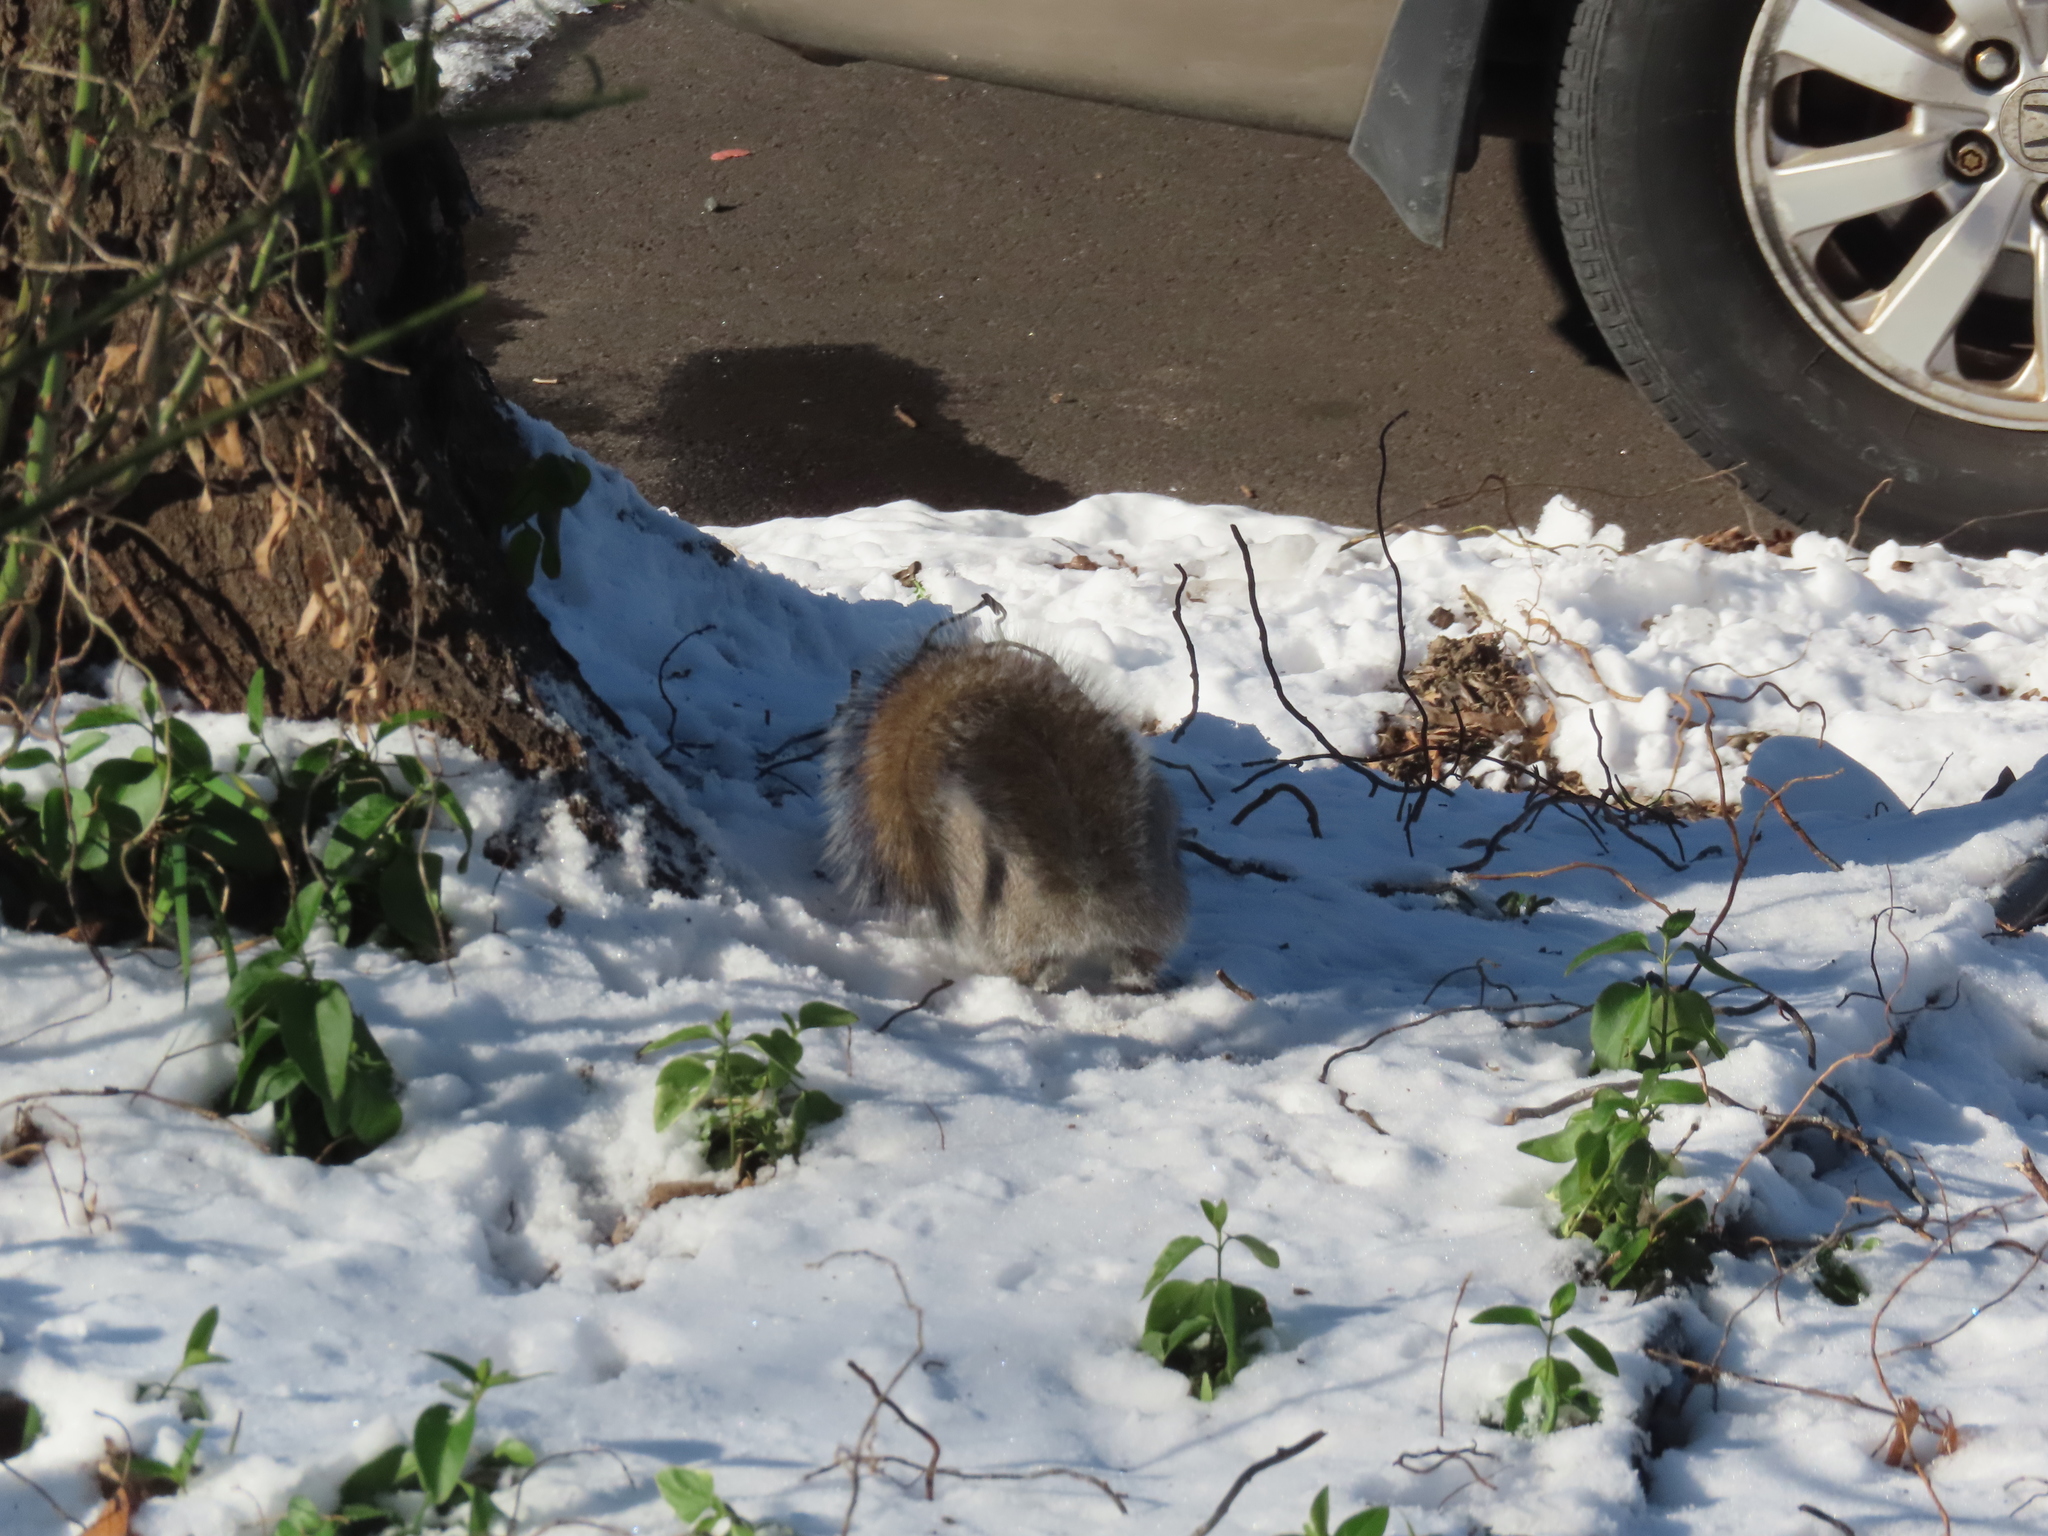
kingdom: Animalia
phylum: Chordata
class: Mammalia
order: Rodentia
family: Sciuridae
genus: Sciurus
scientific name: Sciurus carolinensis
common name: Eastern gray squirrel
